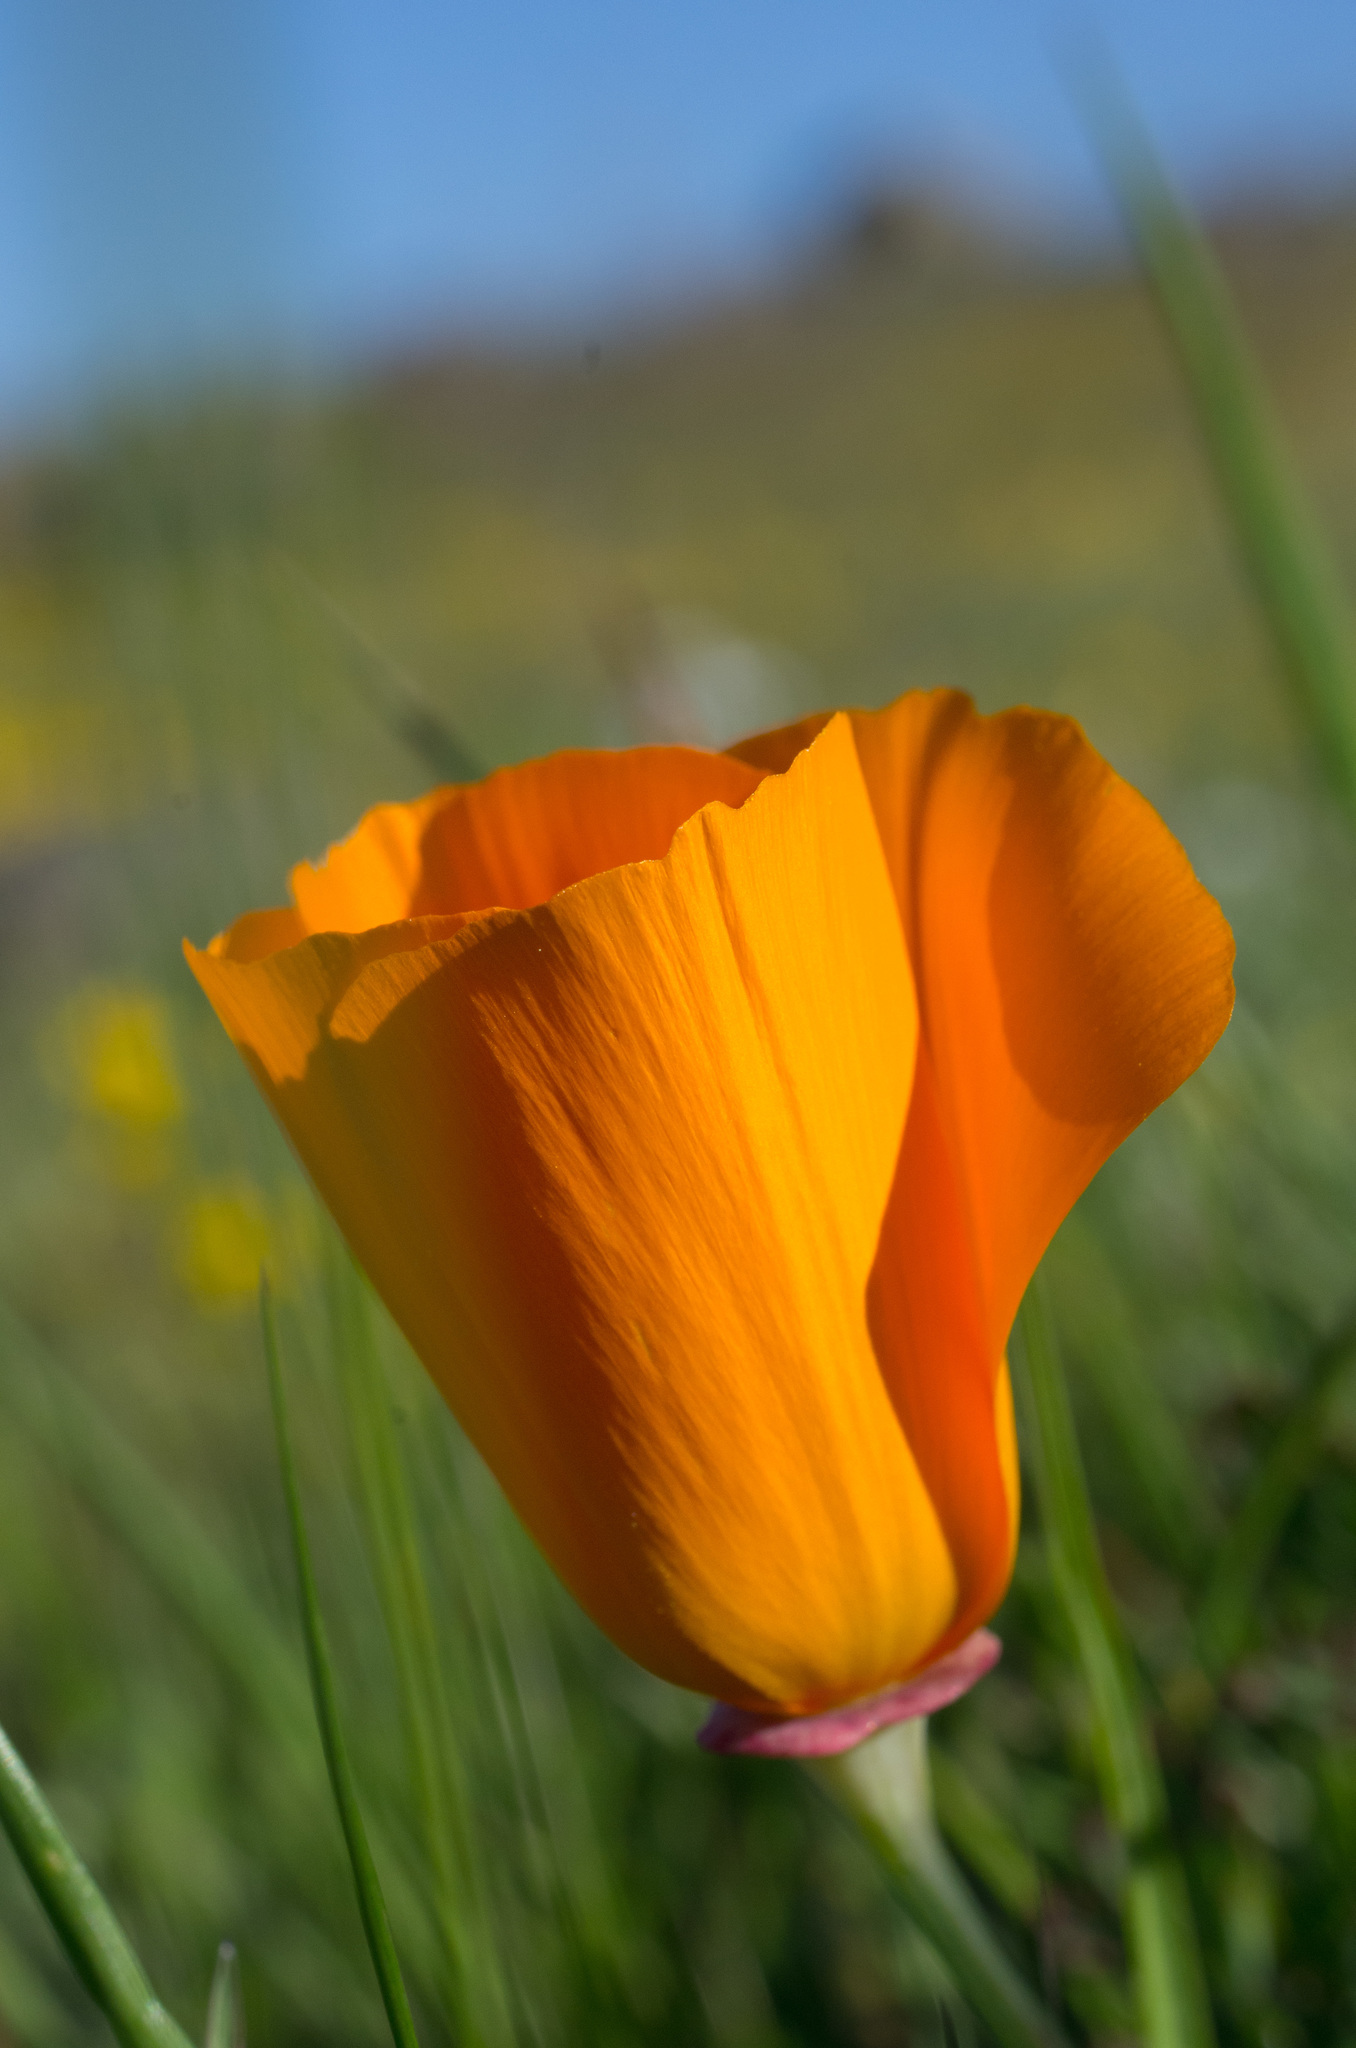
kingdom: Plantae
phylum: Tracheophyta
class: Magnoliopsida
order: Ranunculales
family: Papaveraceae
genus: Eschscholzia
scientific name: Eschscholzia californica
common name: California poppy
